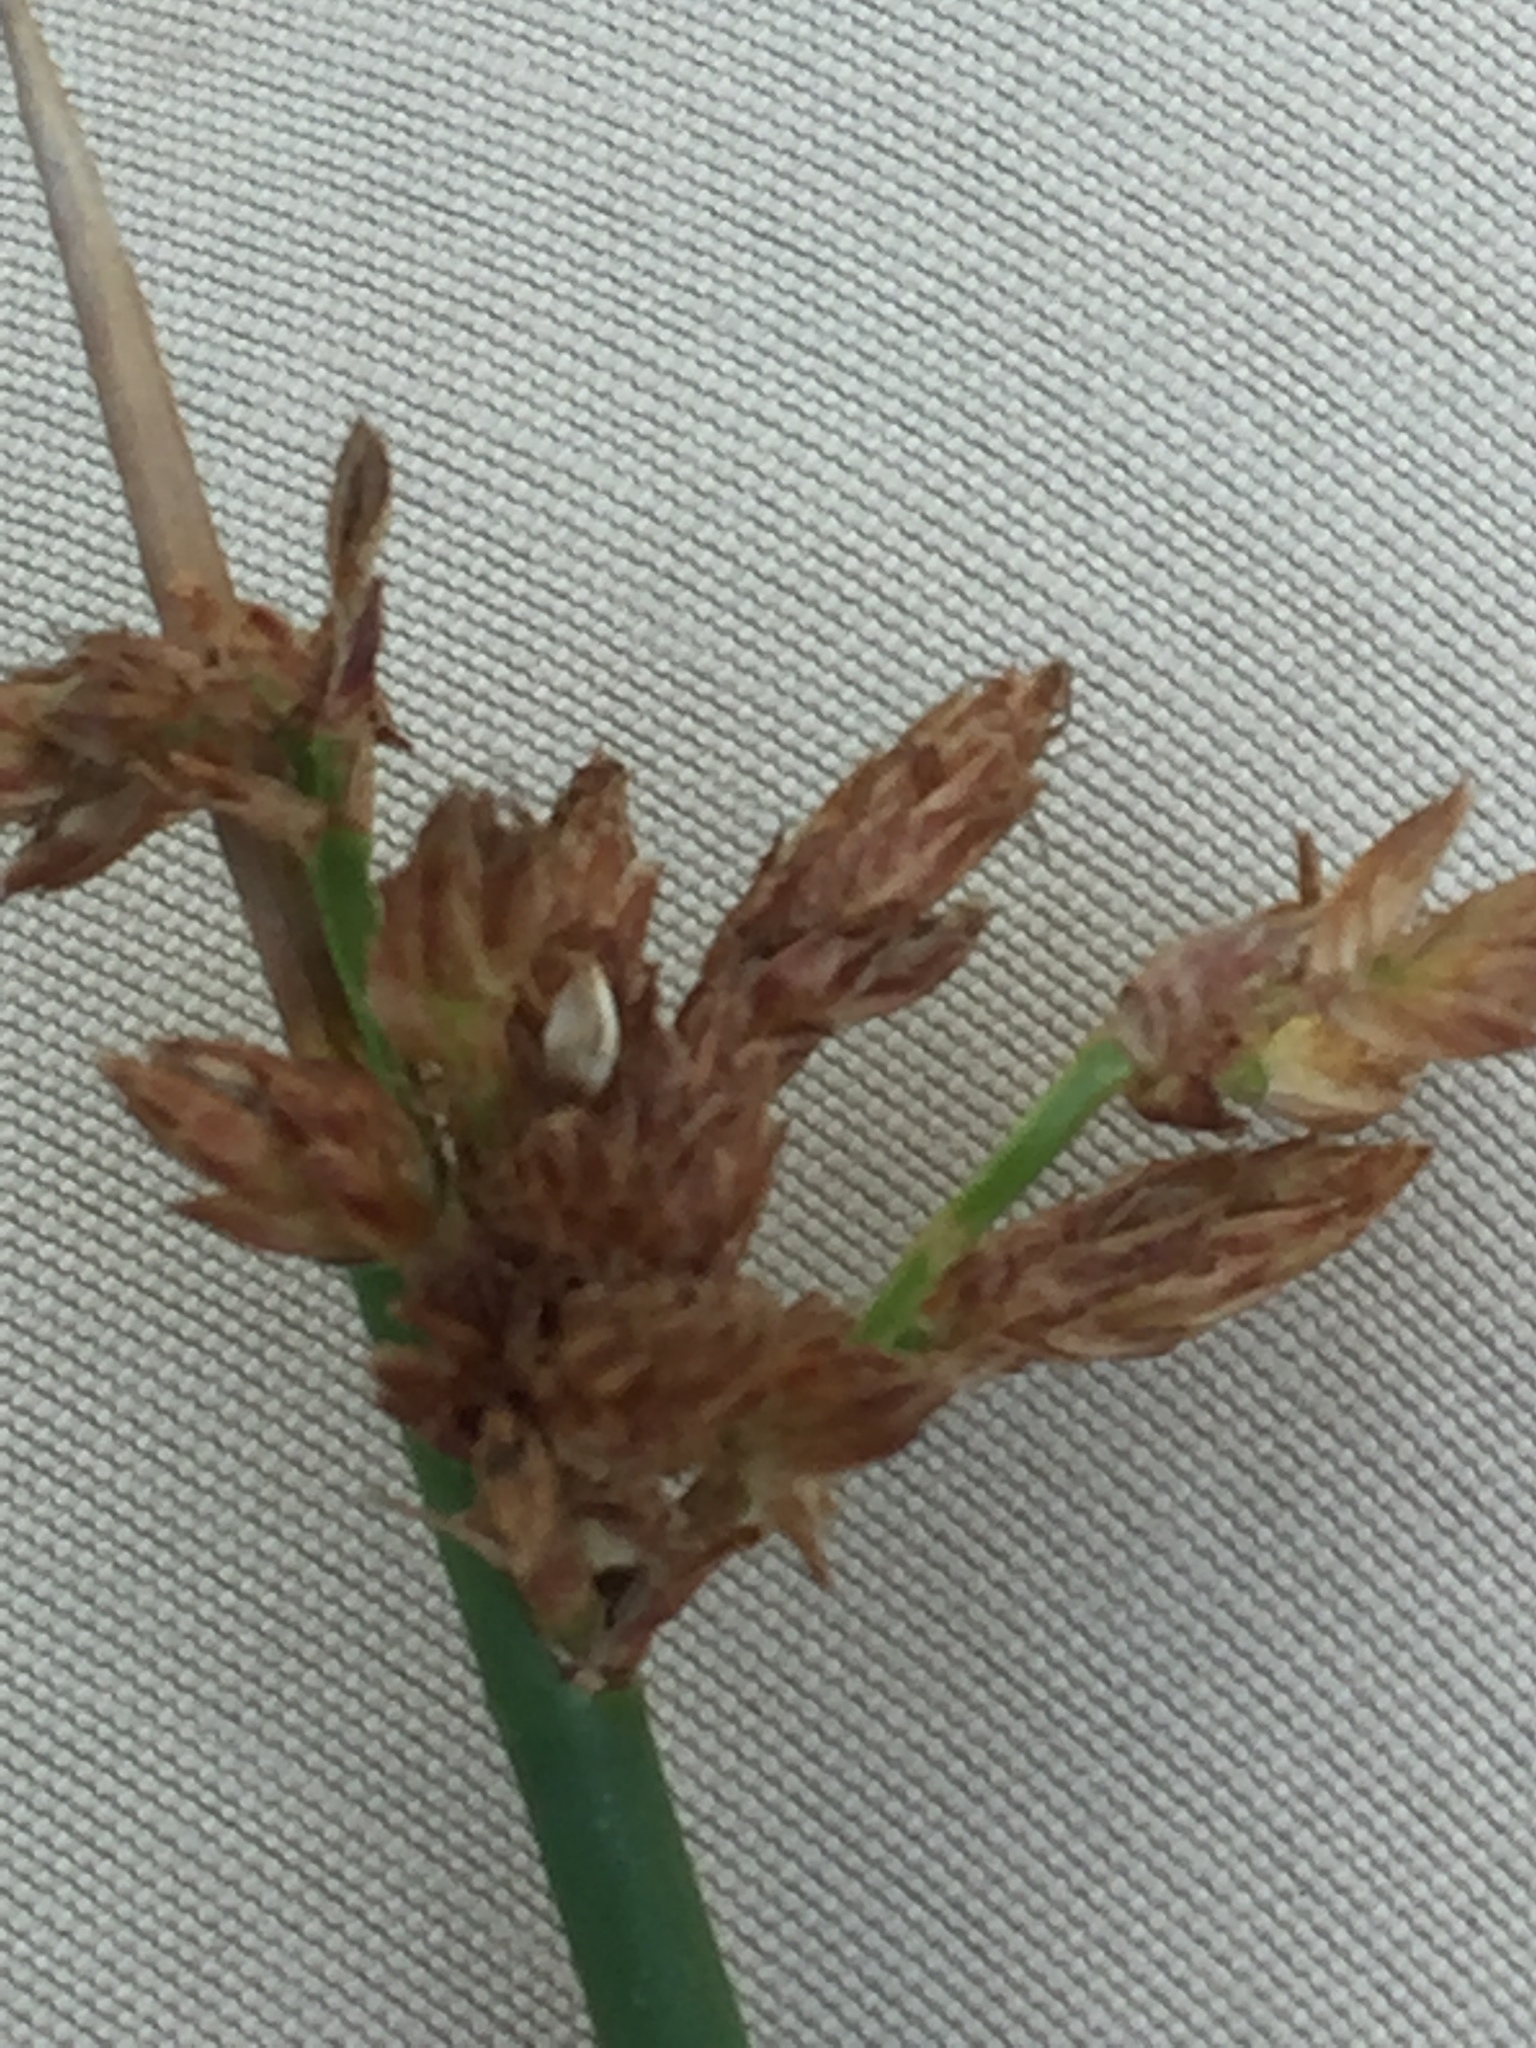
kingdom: Plantae
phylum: Tracheophyta
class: Liliopsida
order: Poales
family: Cyperaceae
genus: Schoenoplectus
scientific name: Schoenoplectus tabernaemontani
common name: Grey club-rush
